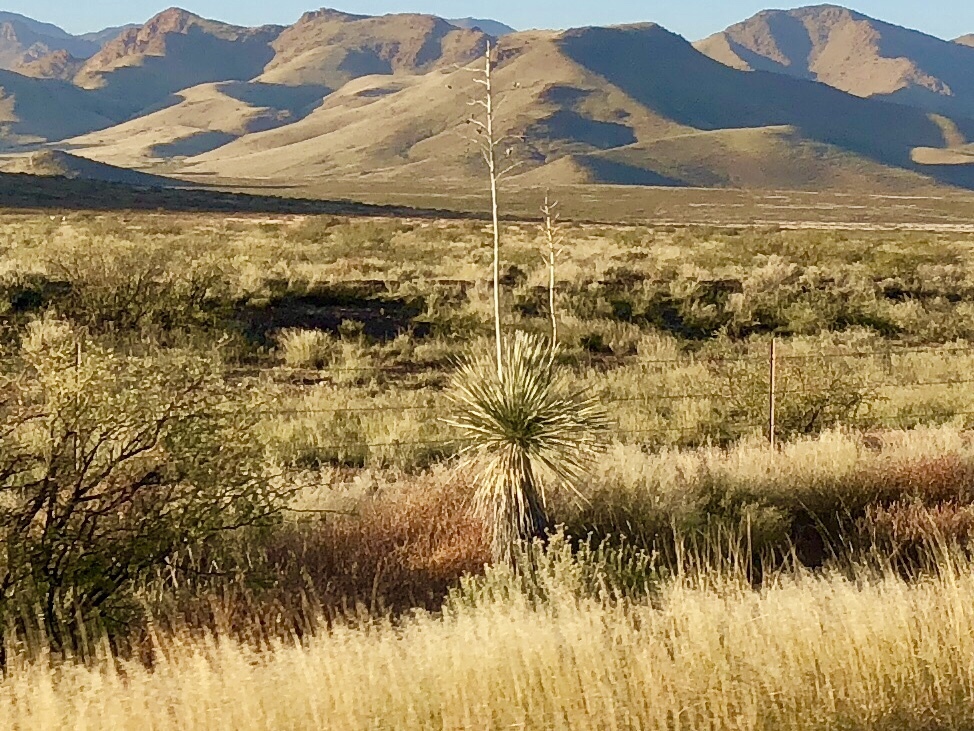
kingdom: Plantae
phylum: Tracheophyta
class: Liliopsida
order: Asparagales
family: Asparagaceae
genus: Yucca
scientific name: Yucca elata
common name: Palmella
